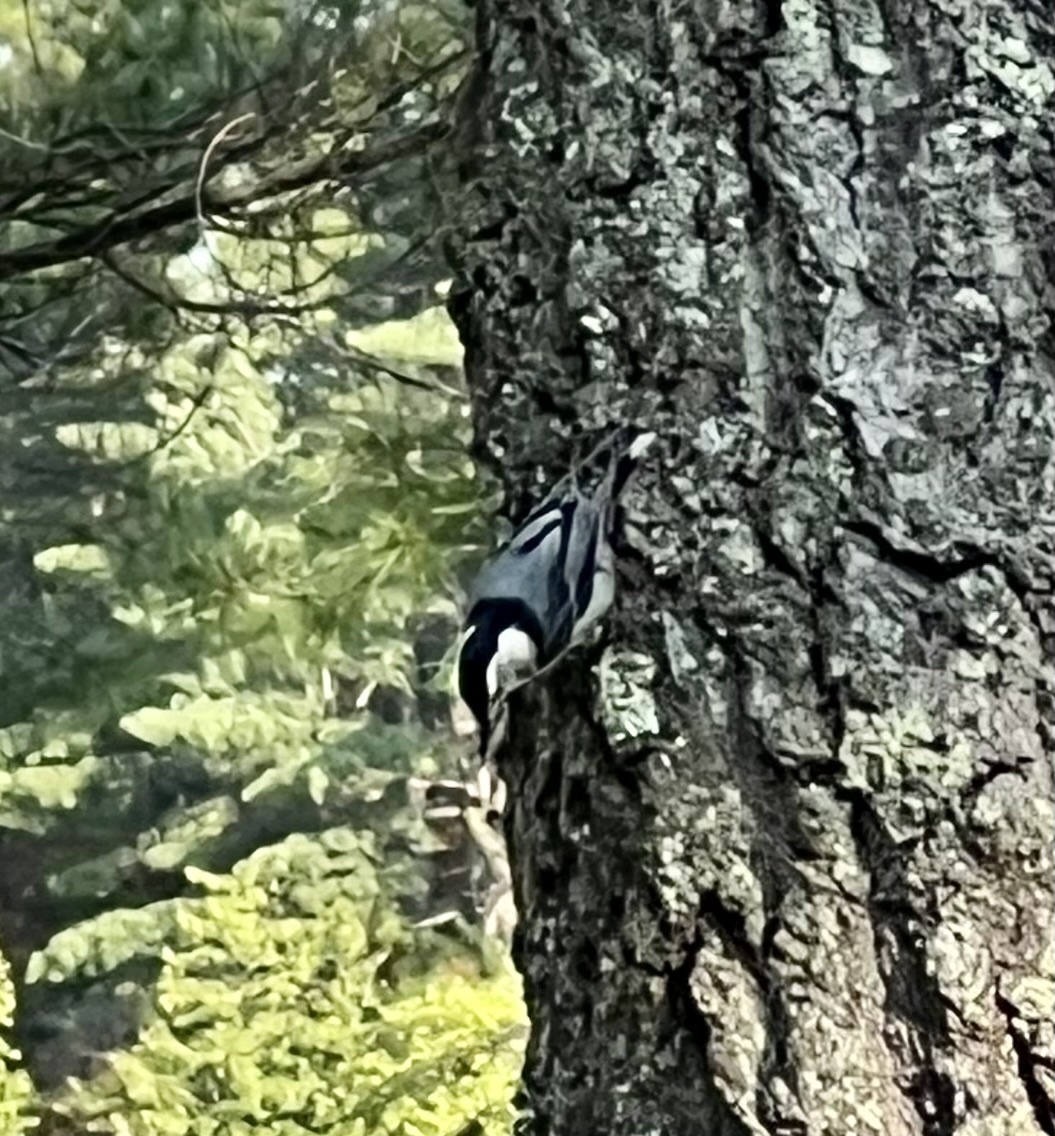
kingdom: Animalia
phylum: Chordata
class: Aves
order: Passeriformes
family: Sittidae
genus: Sitta
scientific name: Sitta carolinensis
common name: White-breasted nuthatch
